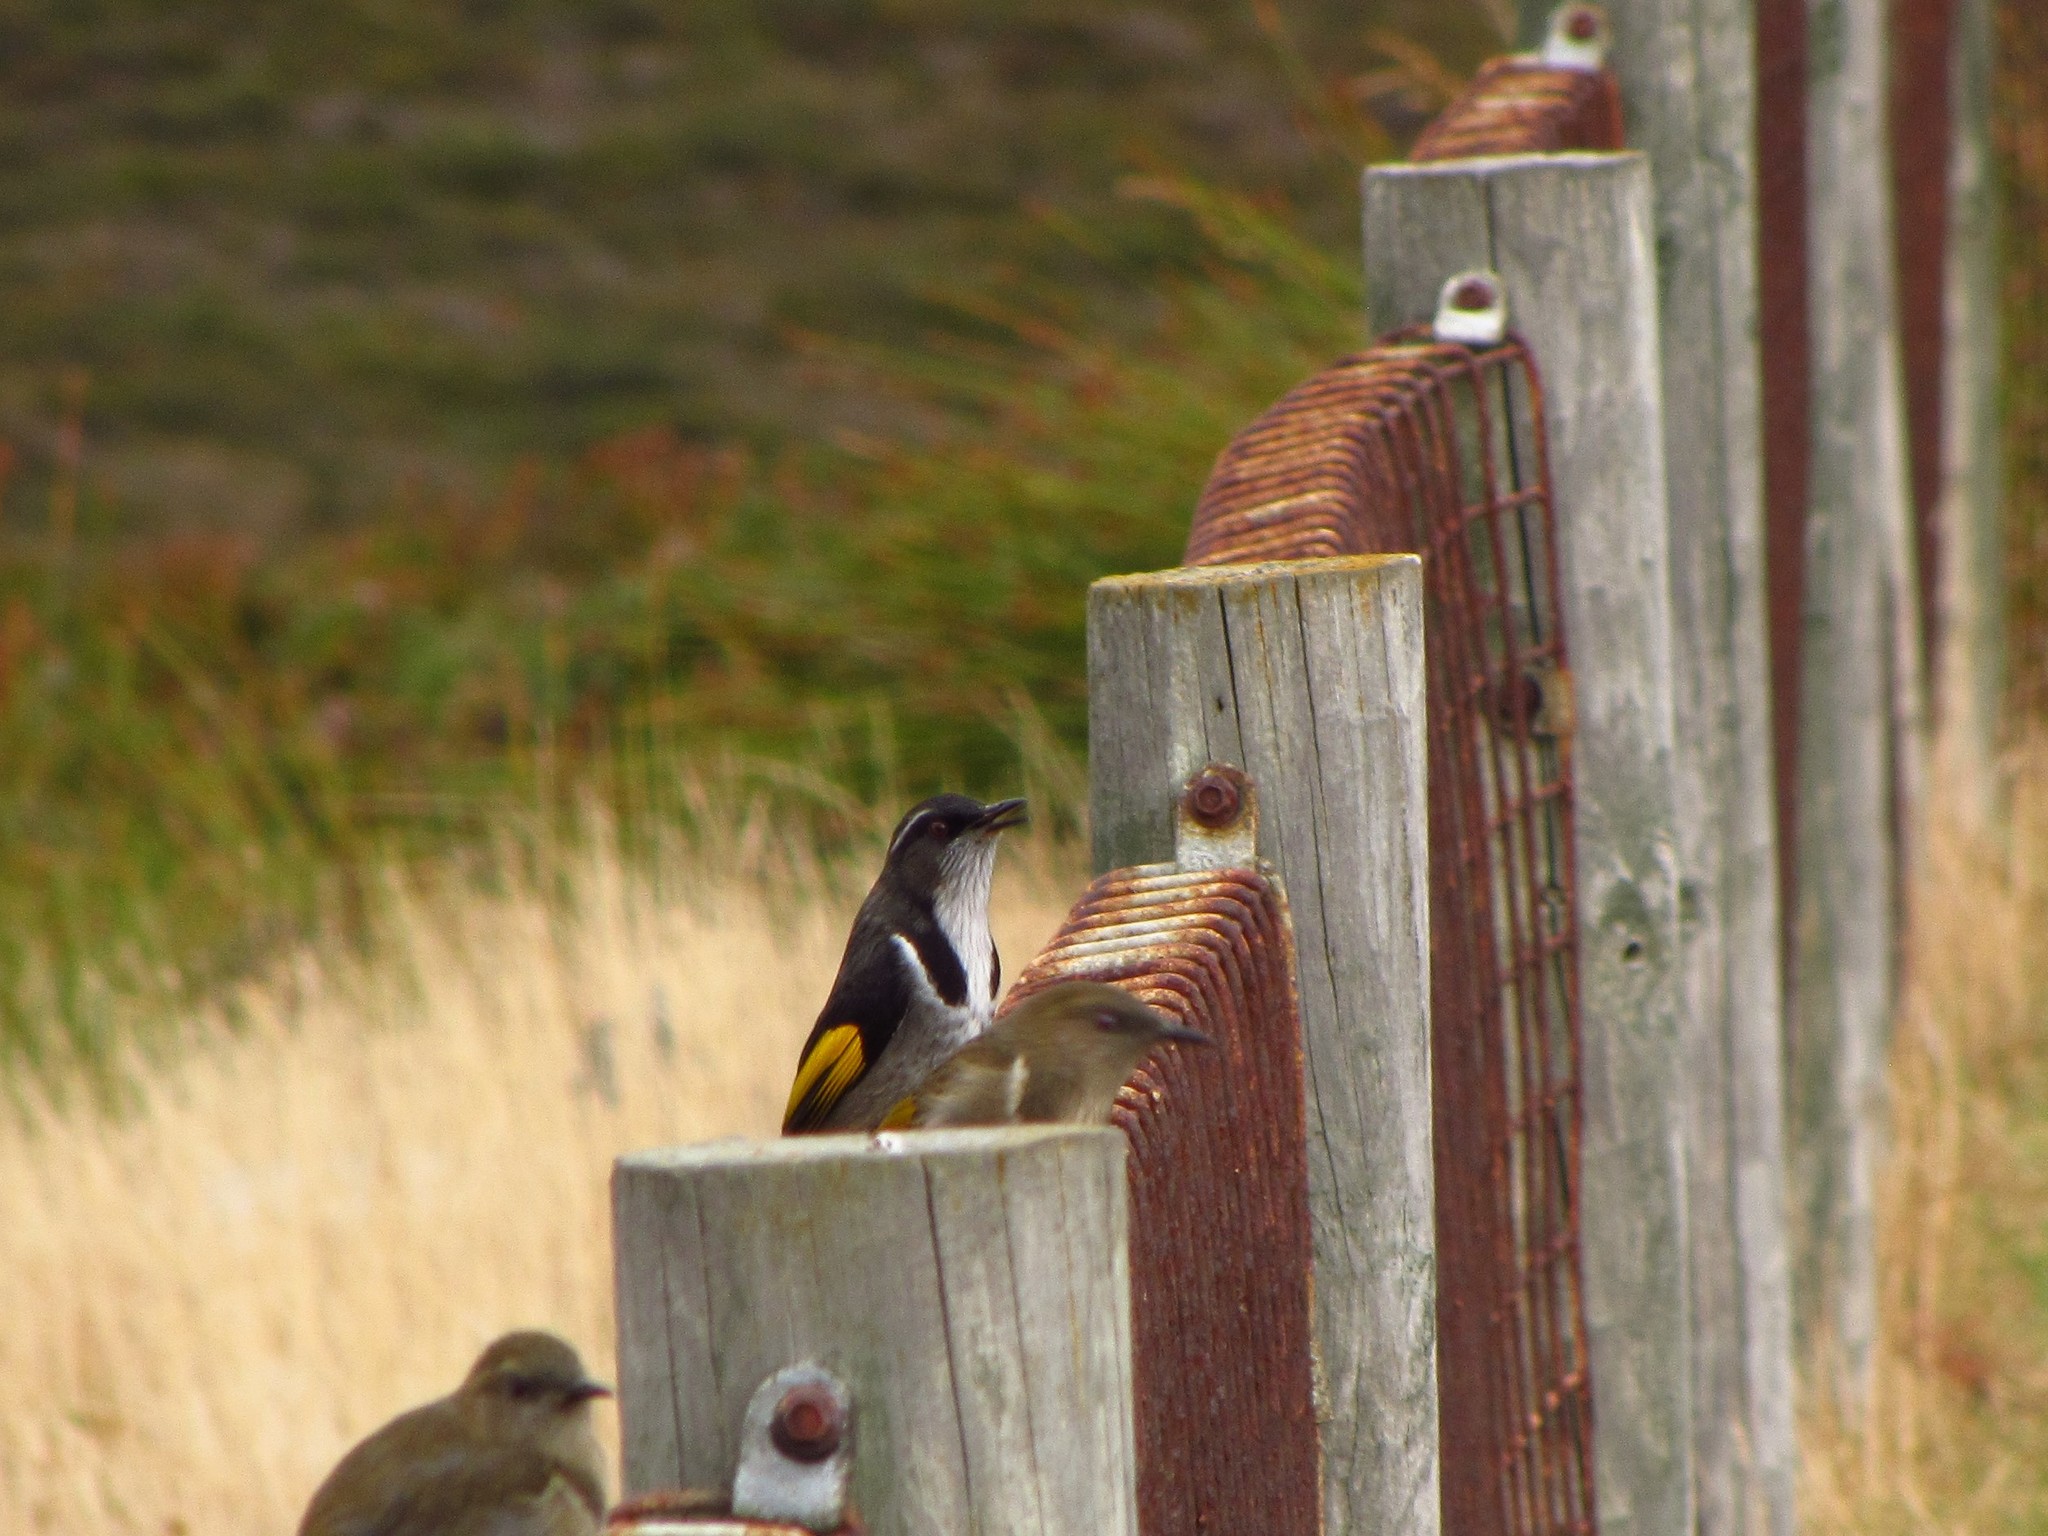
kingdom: Animalia
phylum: Chordata
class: Aves
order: Passeriformes
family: Meliphagidae
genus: Phylidonyris
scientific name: Phylidonyris pyrrhopterus
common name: Crescent honeyeater
